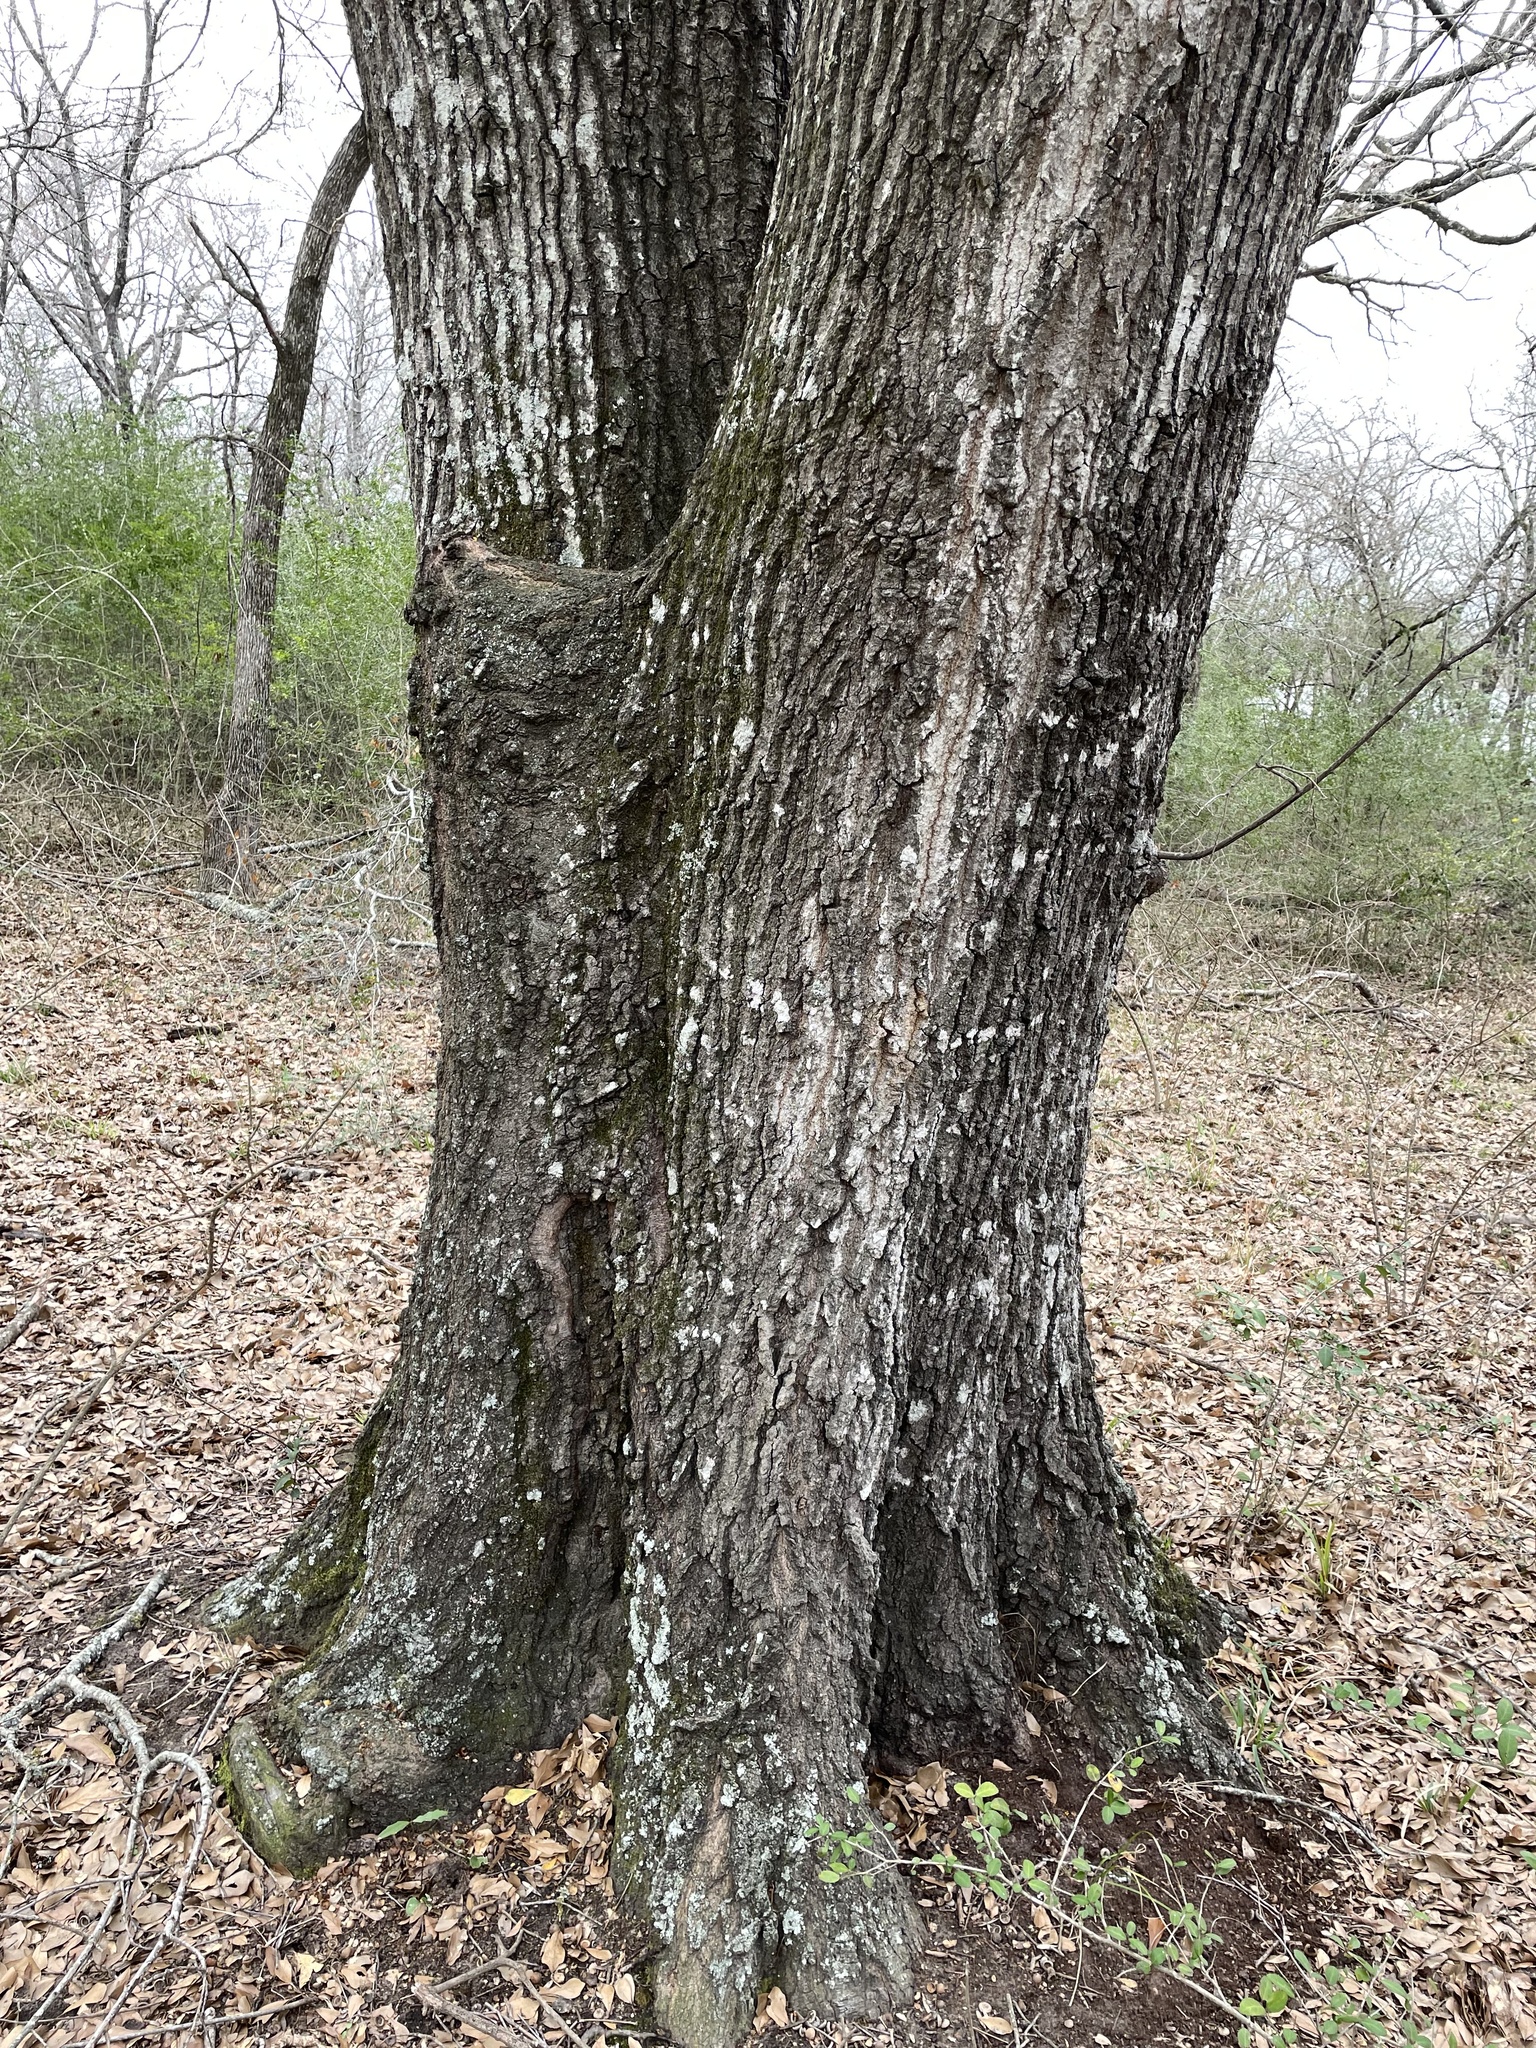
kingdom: Plantae
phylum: Tracheophyta
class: Magnoliopsida
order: Fagales
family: Fagaceae
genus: Quercus
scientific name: Quercus nigra
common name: Water oak
